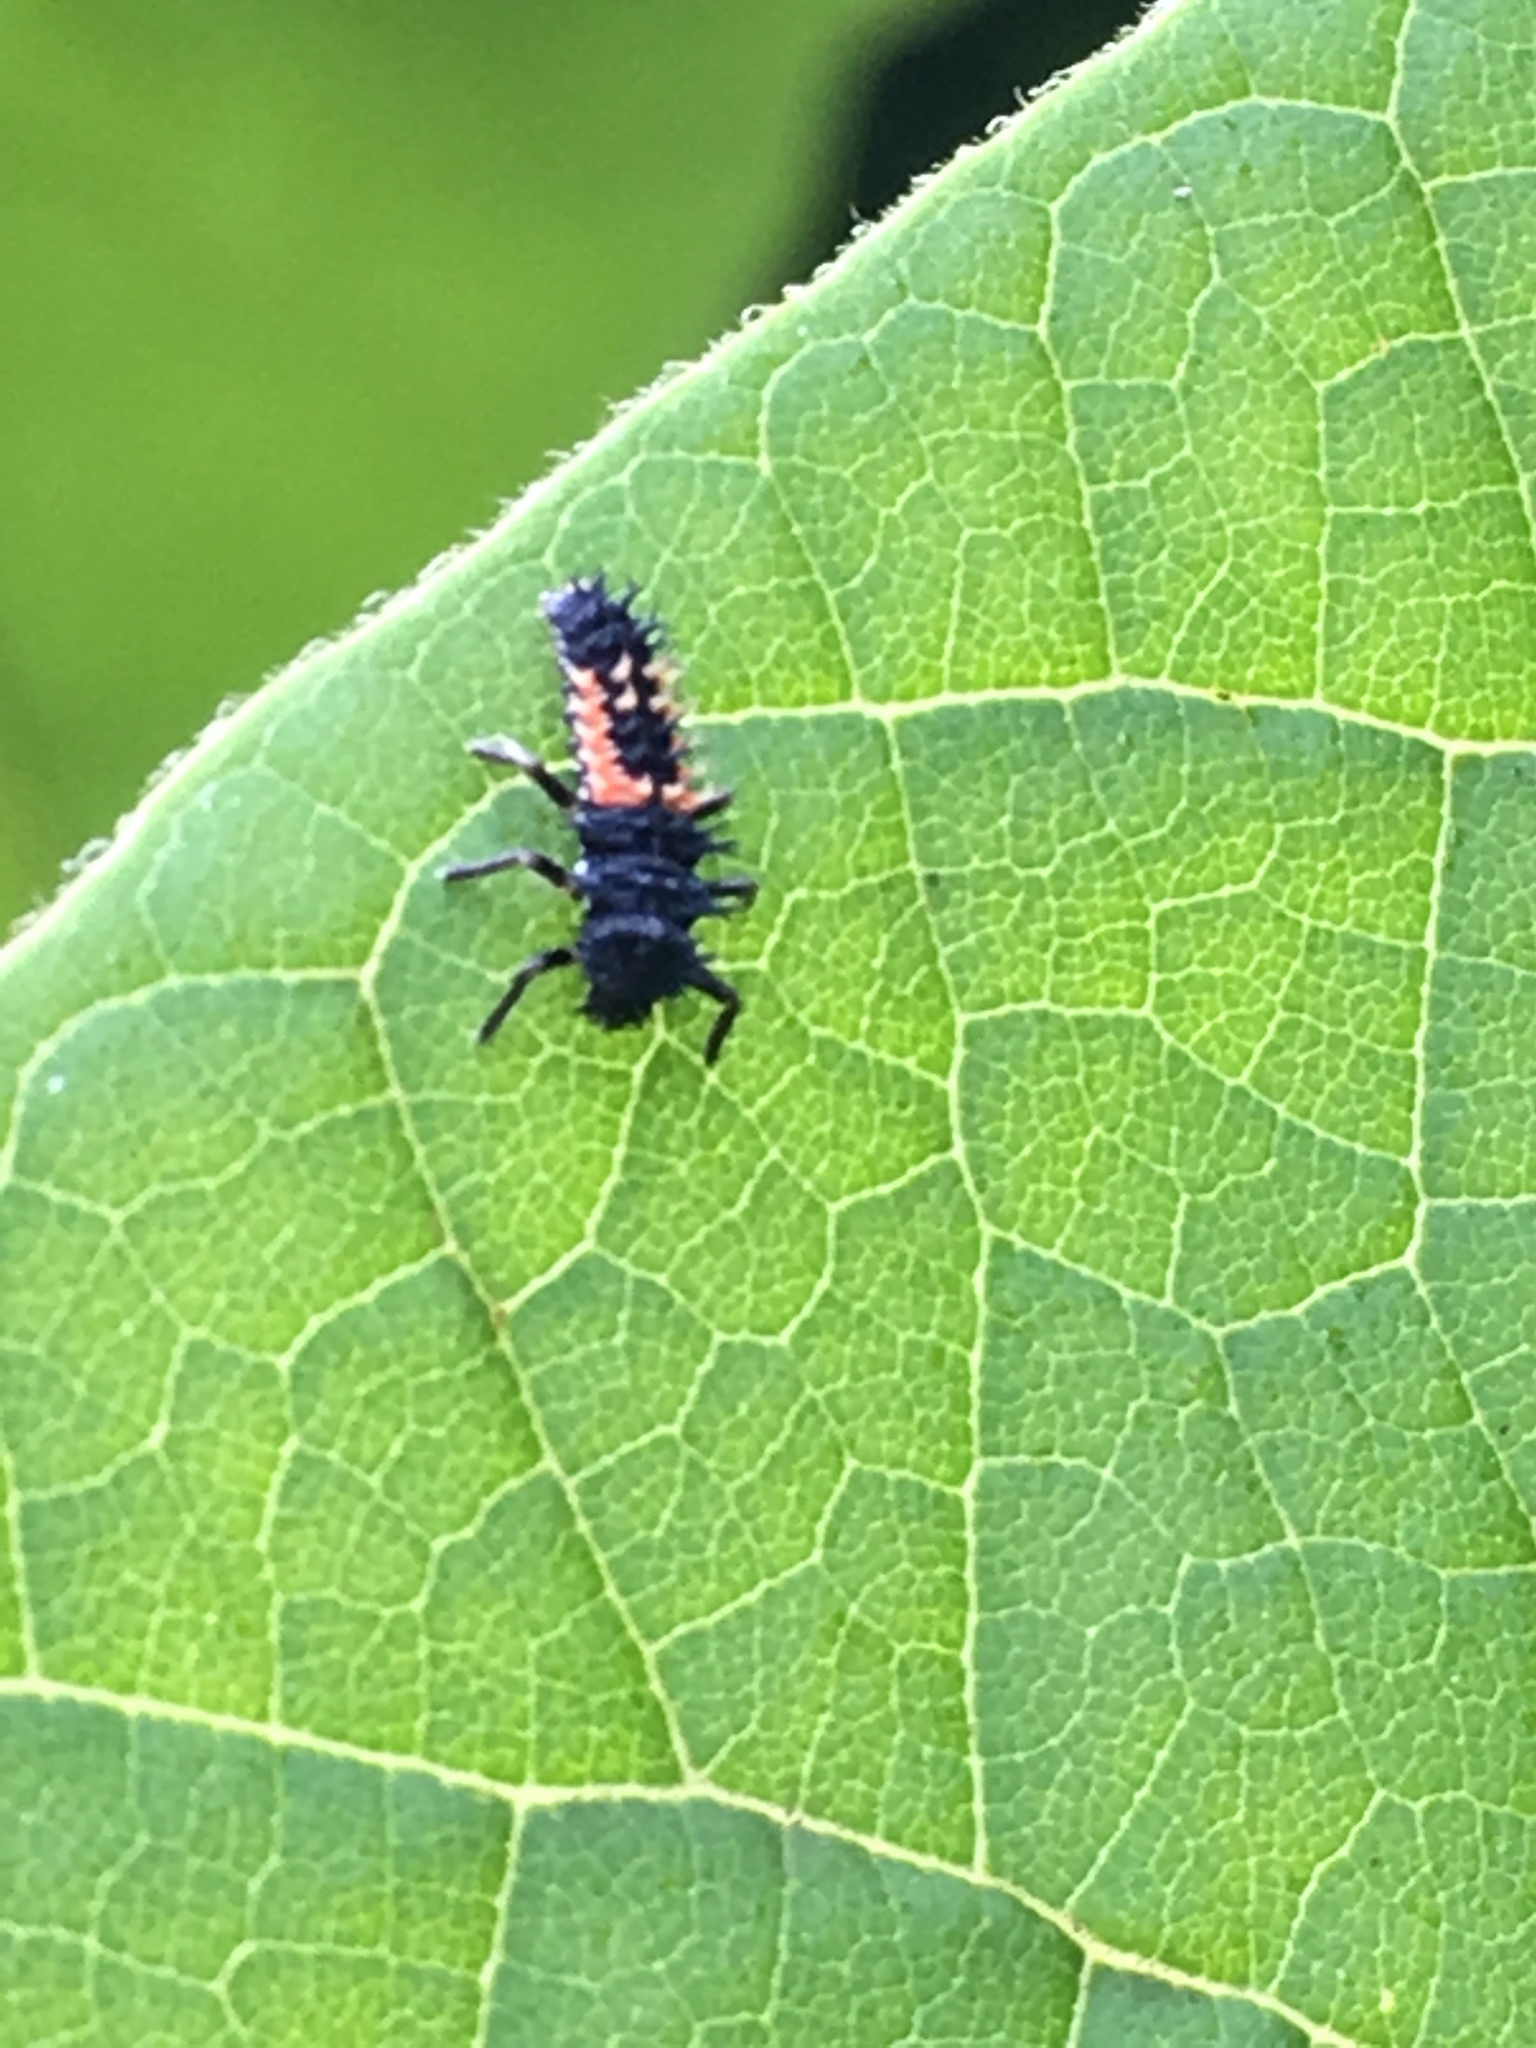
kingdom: Animalia
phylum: Arthropoda
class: Insecta
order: Coleoptera
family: Coccinellidae
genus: Harmonia
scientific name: Harmonia axyridis
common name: Harlequin ladybird
